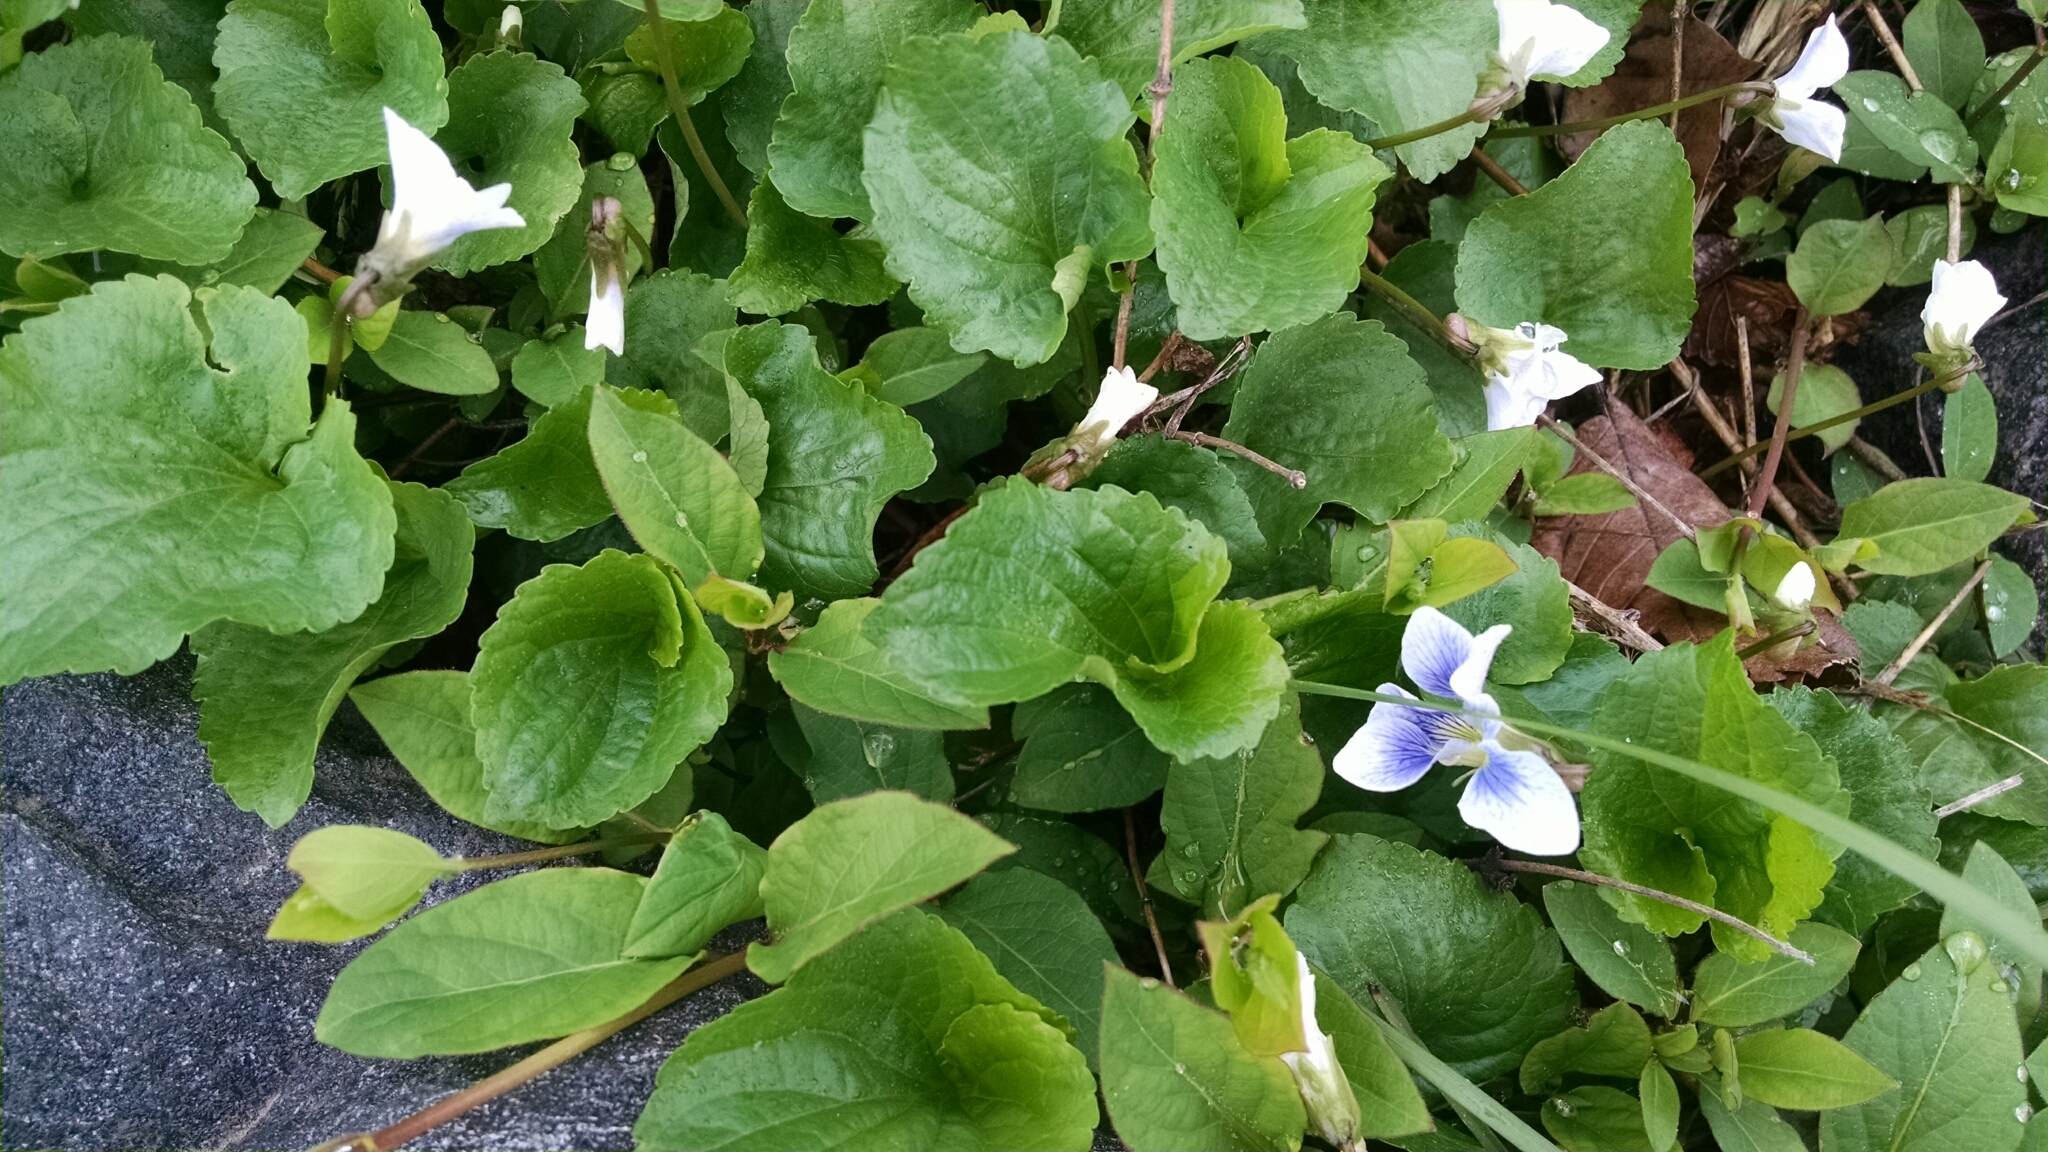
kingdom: Plantae
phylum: Tracheophyta
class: Magnoliopsida
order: Malpighiales
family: Violaceae
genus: Viola
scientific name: Viola sororia
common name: Dooryard violet
